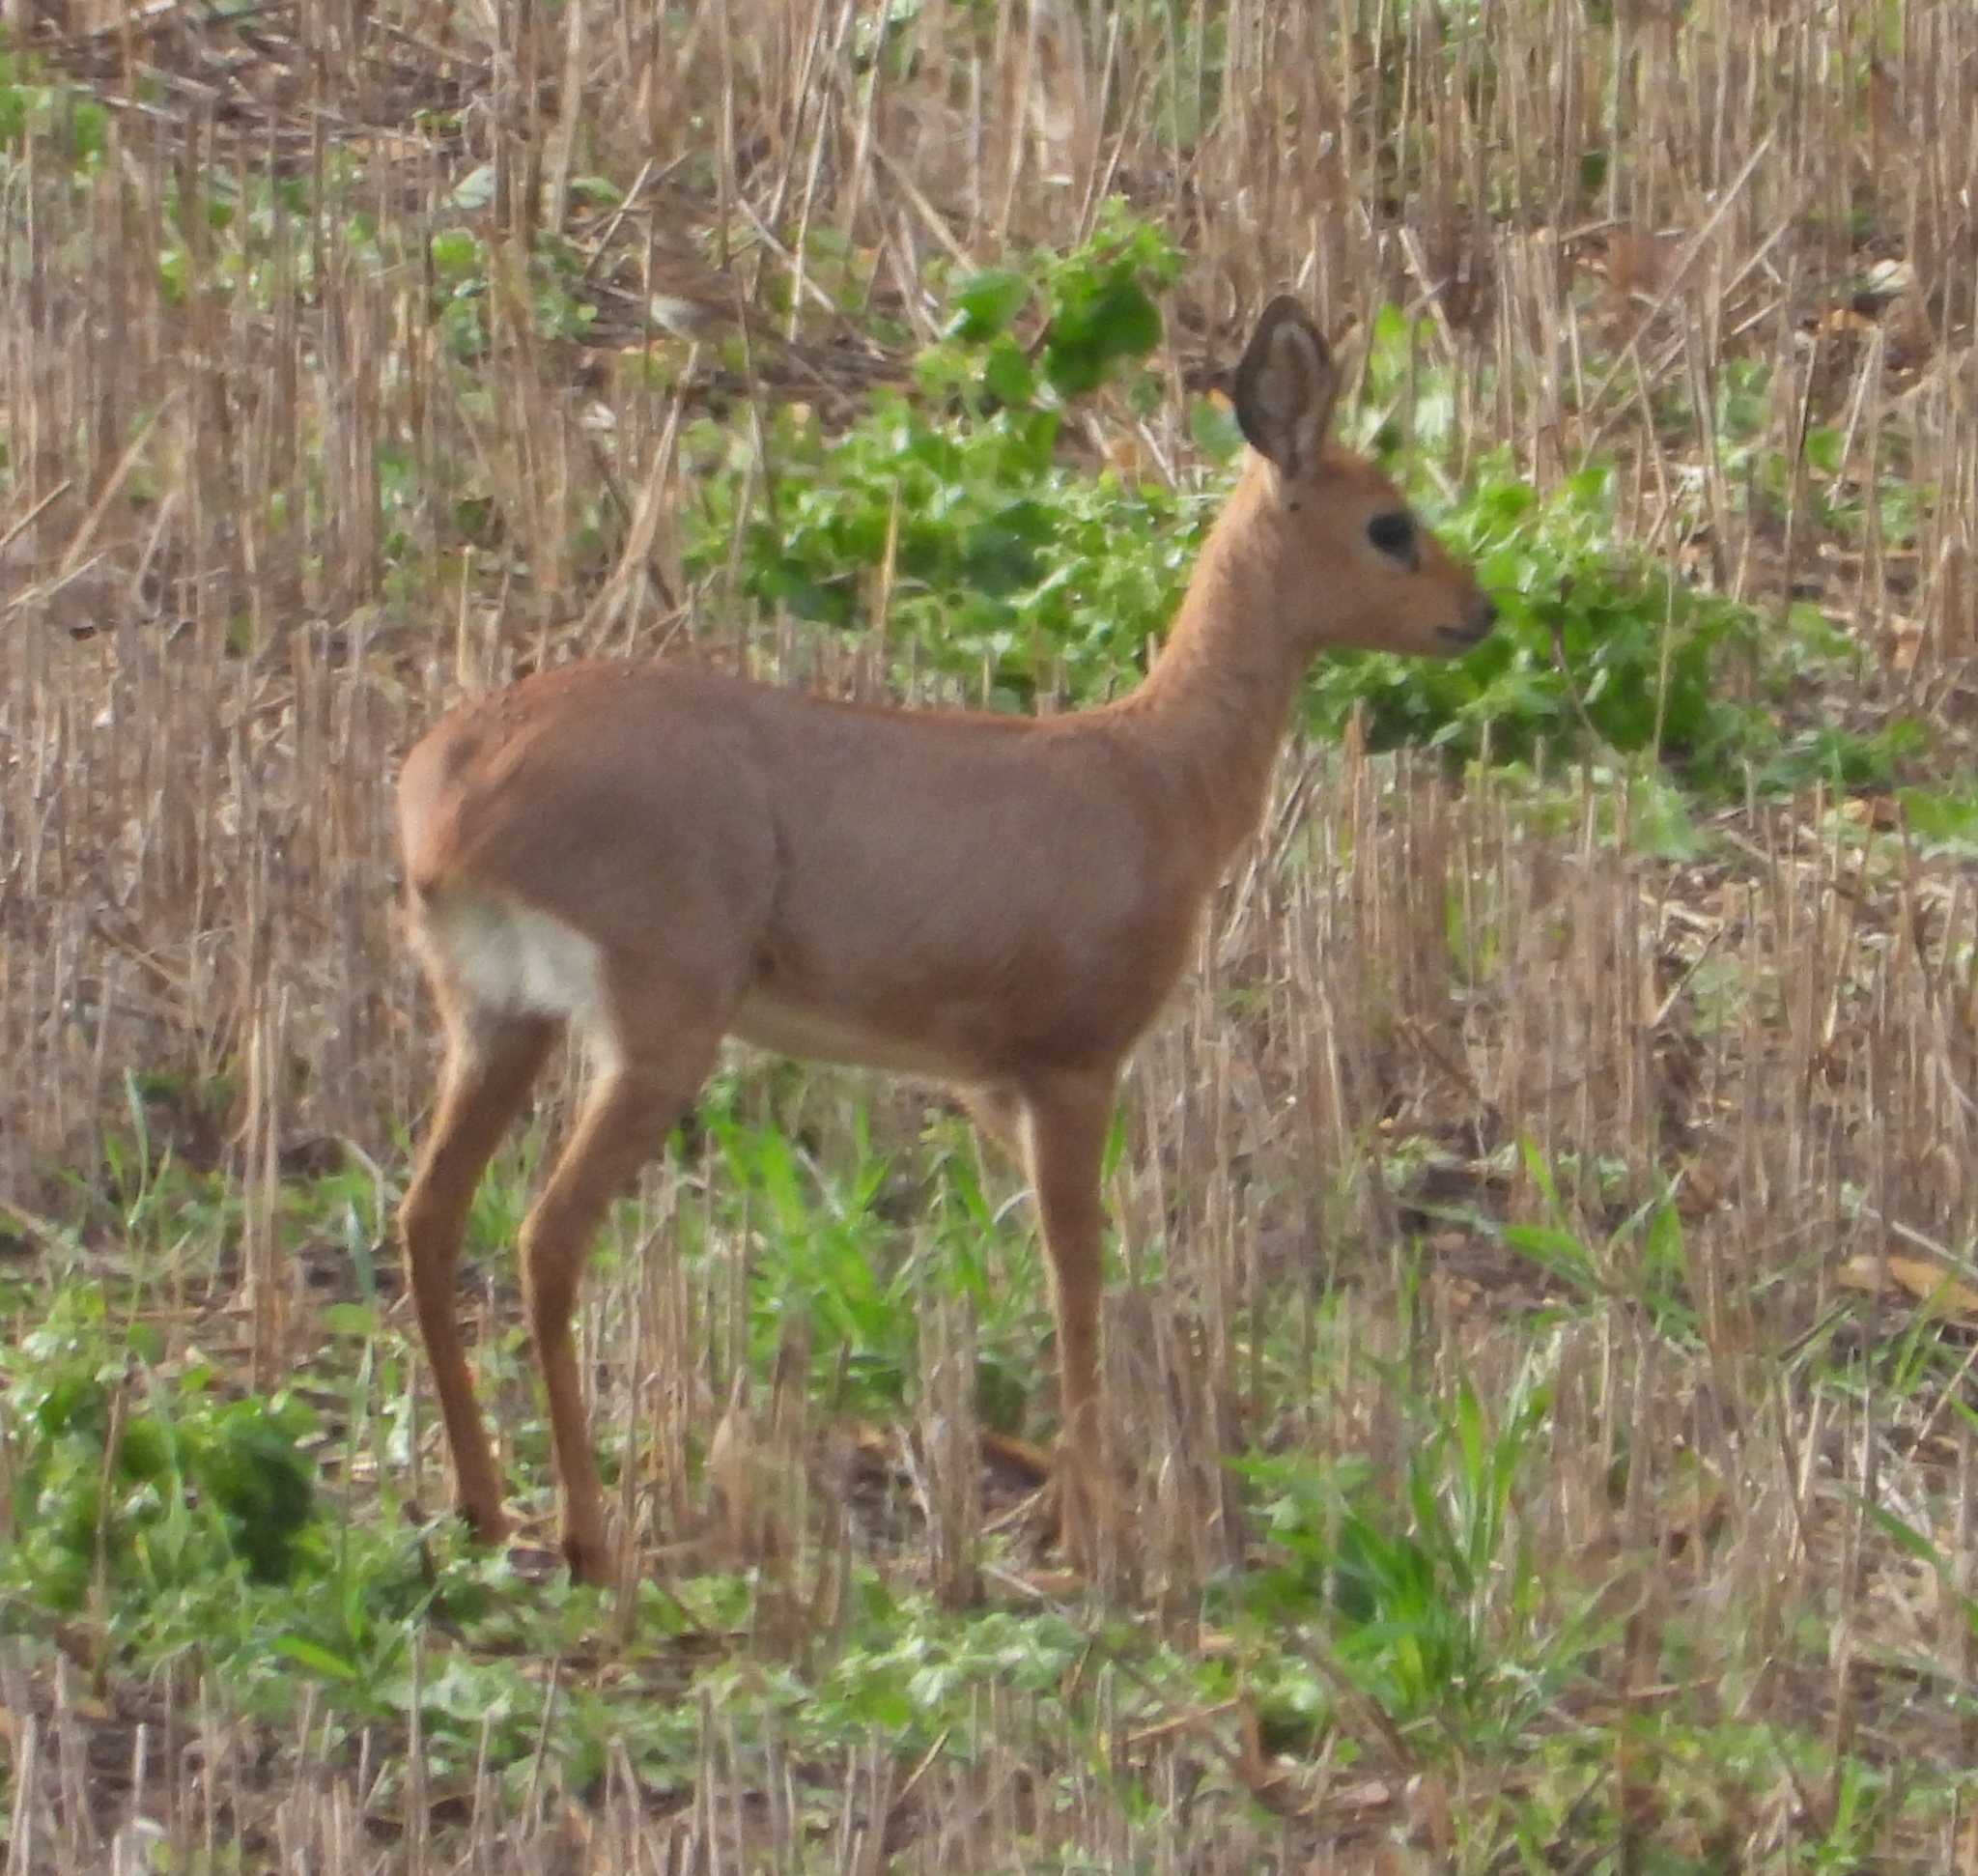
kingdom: Animalia
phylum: Chordata
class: Mammalia
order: Artiodactyla
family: Bovidae
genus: Raphicerus
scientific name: Raphicerus campestris
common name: Steenbok
